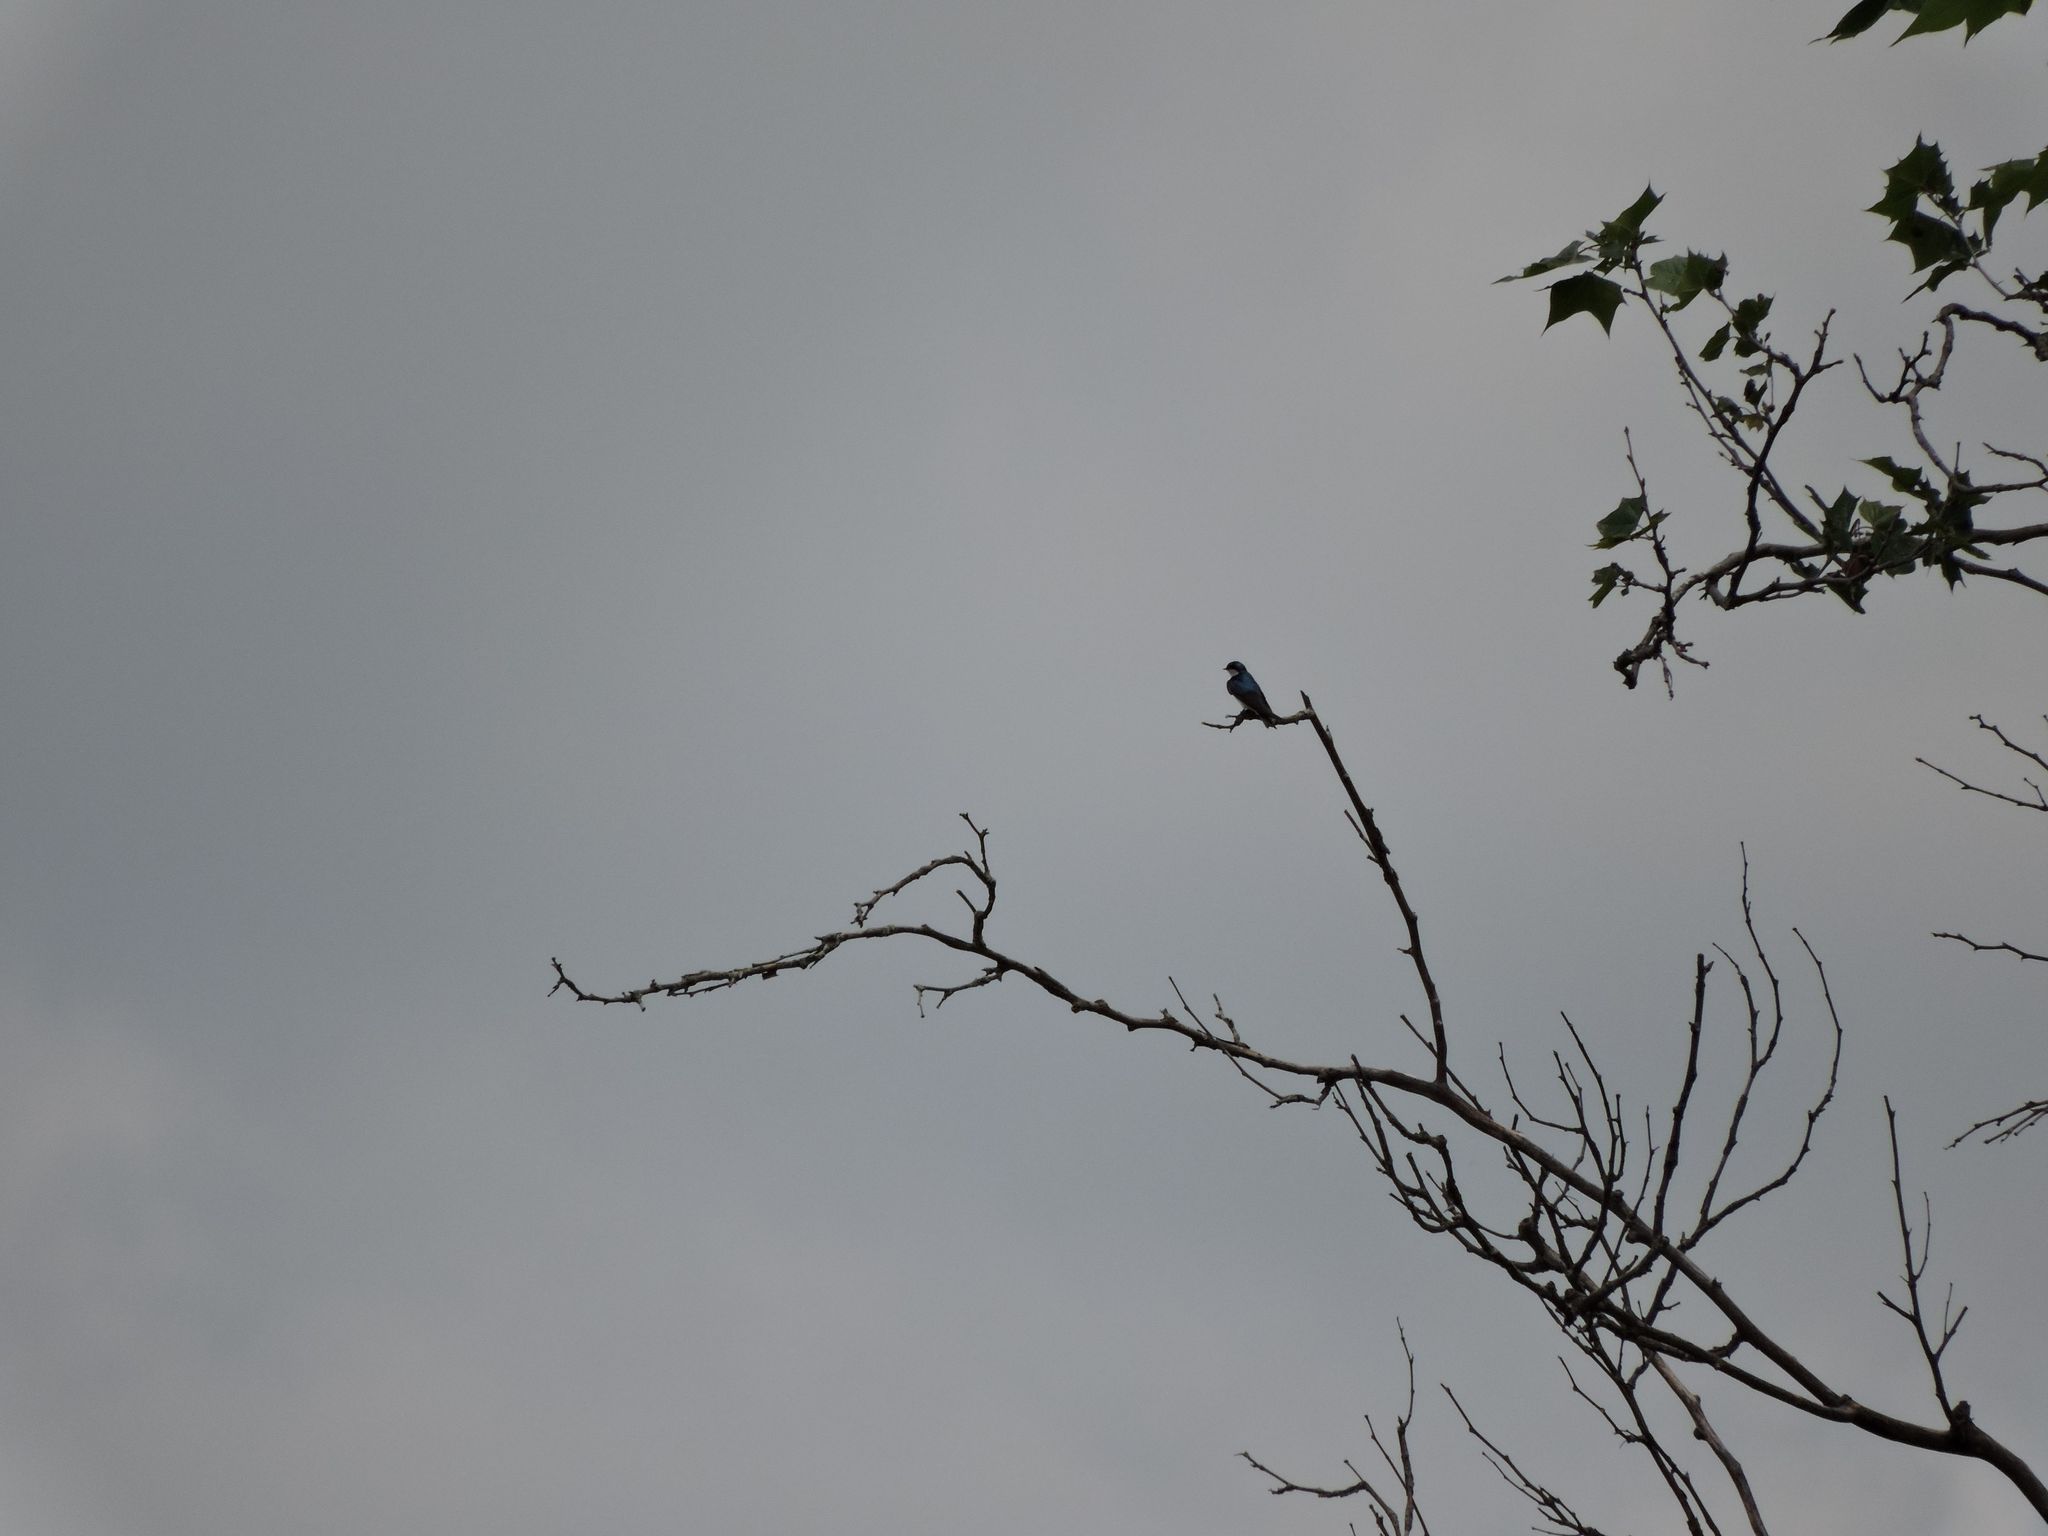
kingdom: Animalia
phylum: Chordata
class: Aves
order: Passeriformes
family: Hirundinidae
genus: Tachycineta
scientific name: Tachycineta bicolor
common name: Tree swallow
